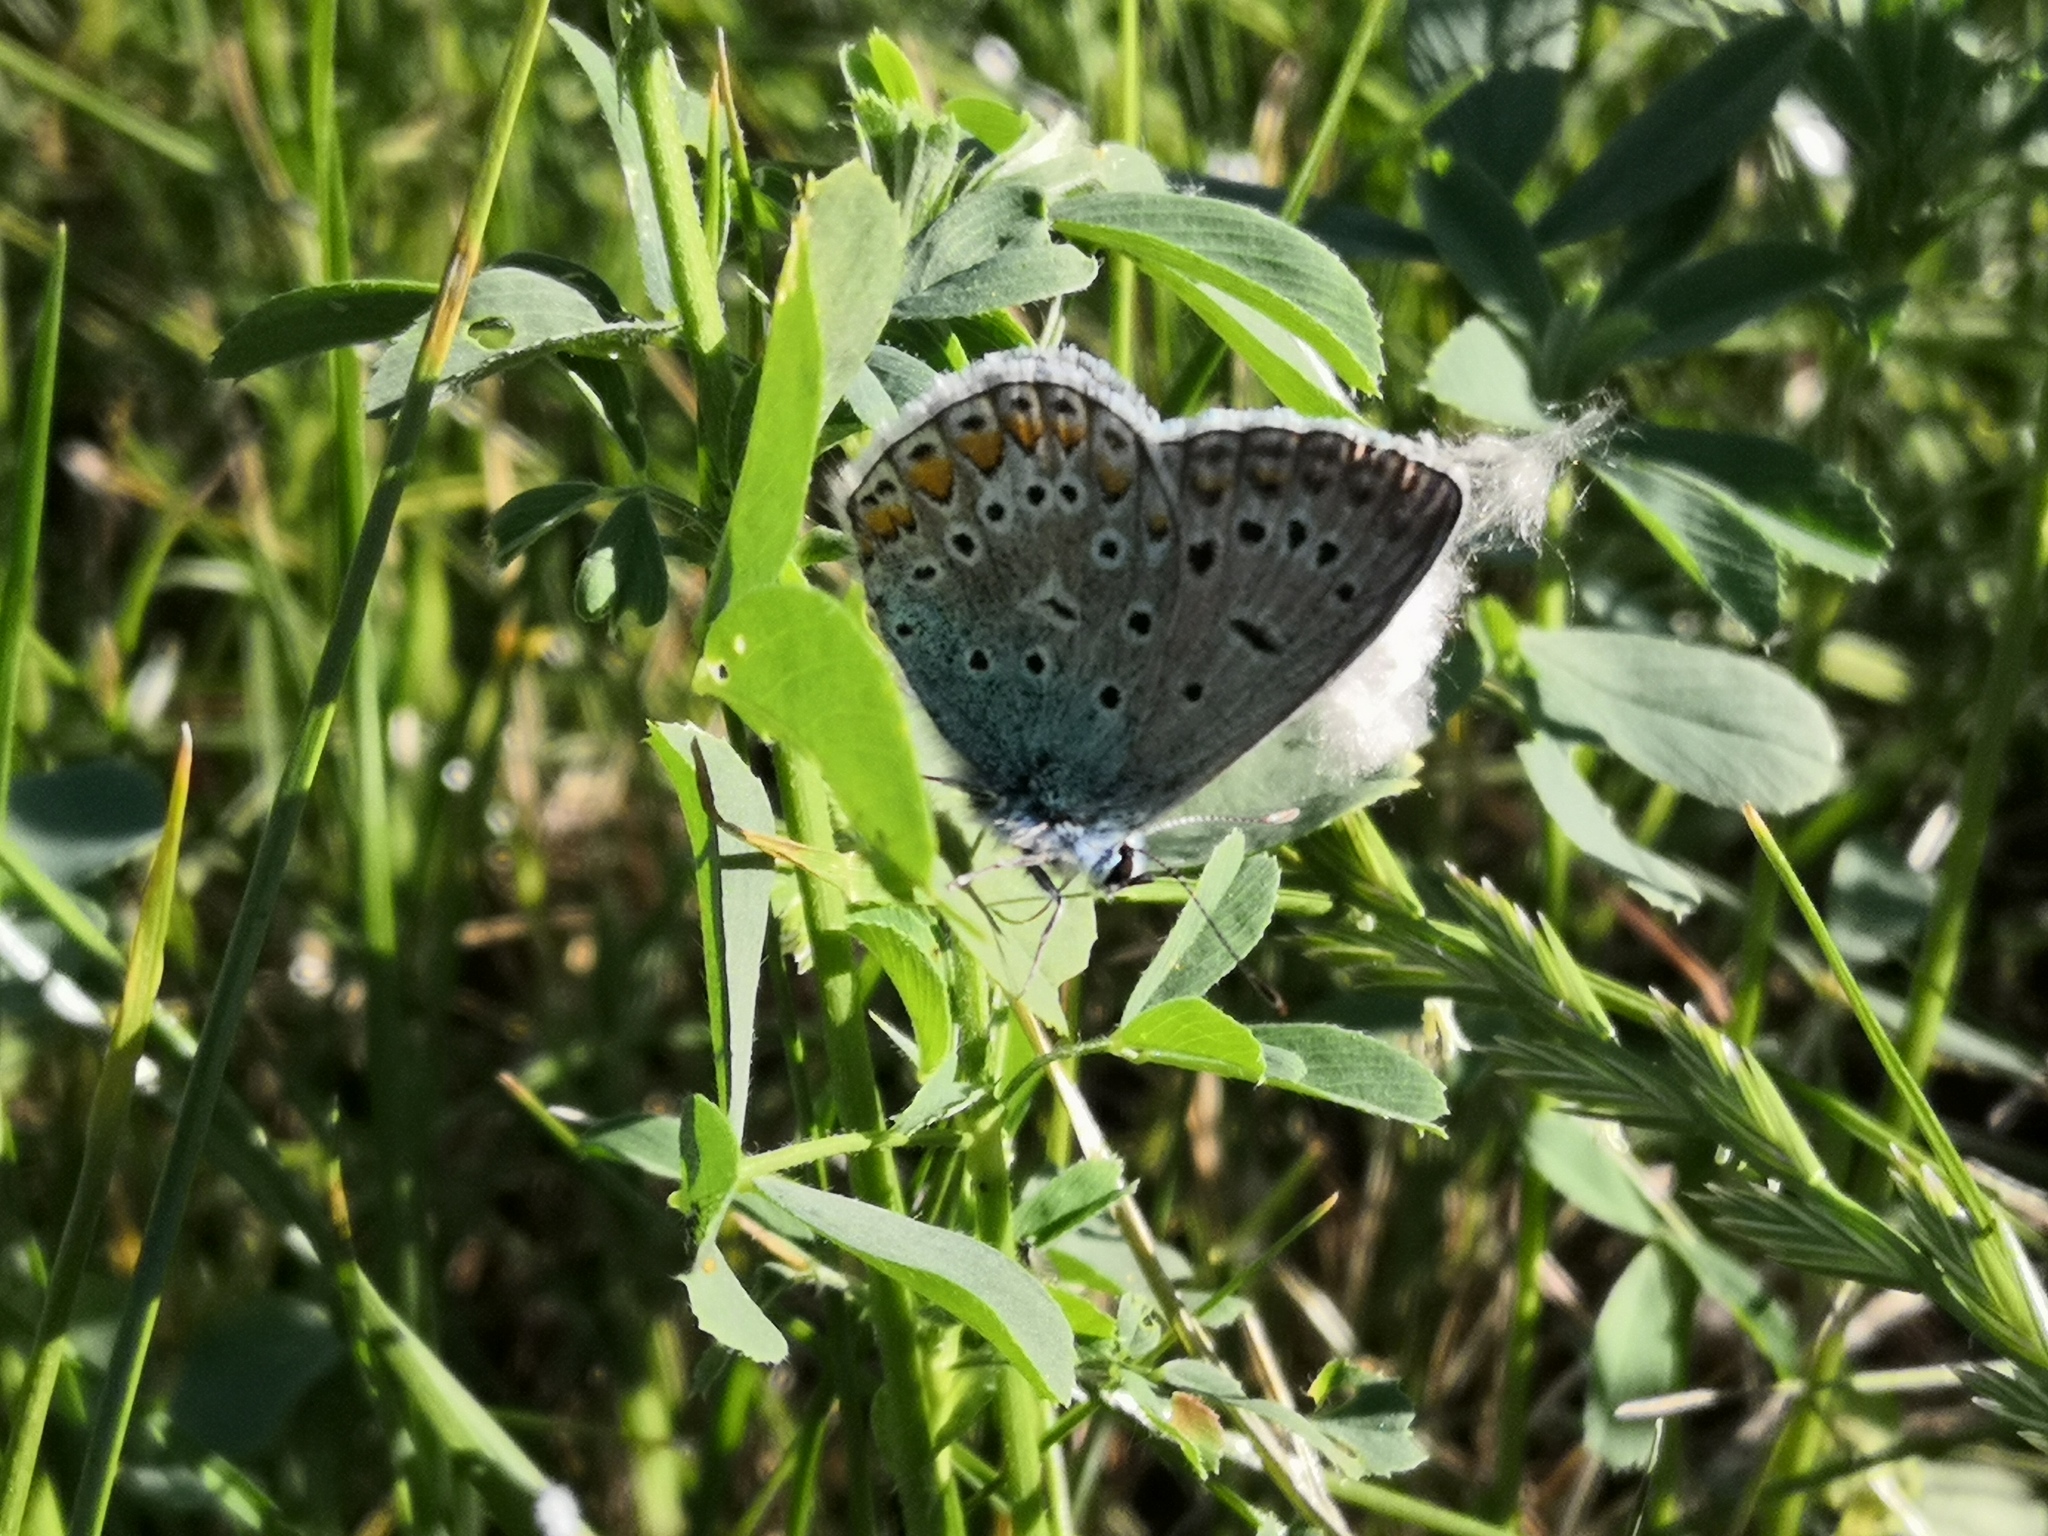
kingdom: Animalia
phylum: Arthropoda
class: Insecta
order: Lepidoptera
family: Lycaenidae
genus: Polyommatus
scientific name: Polyommatus icarus
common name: Common blue
